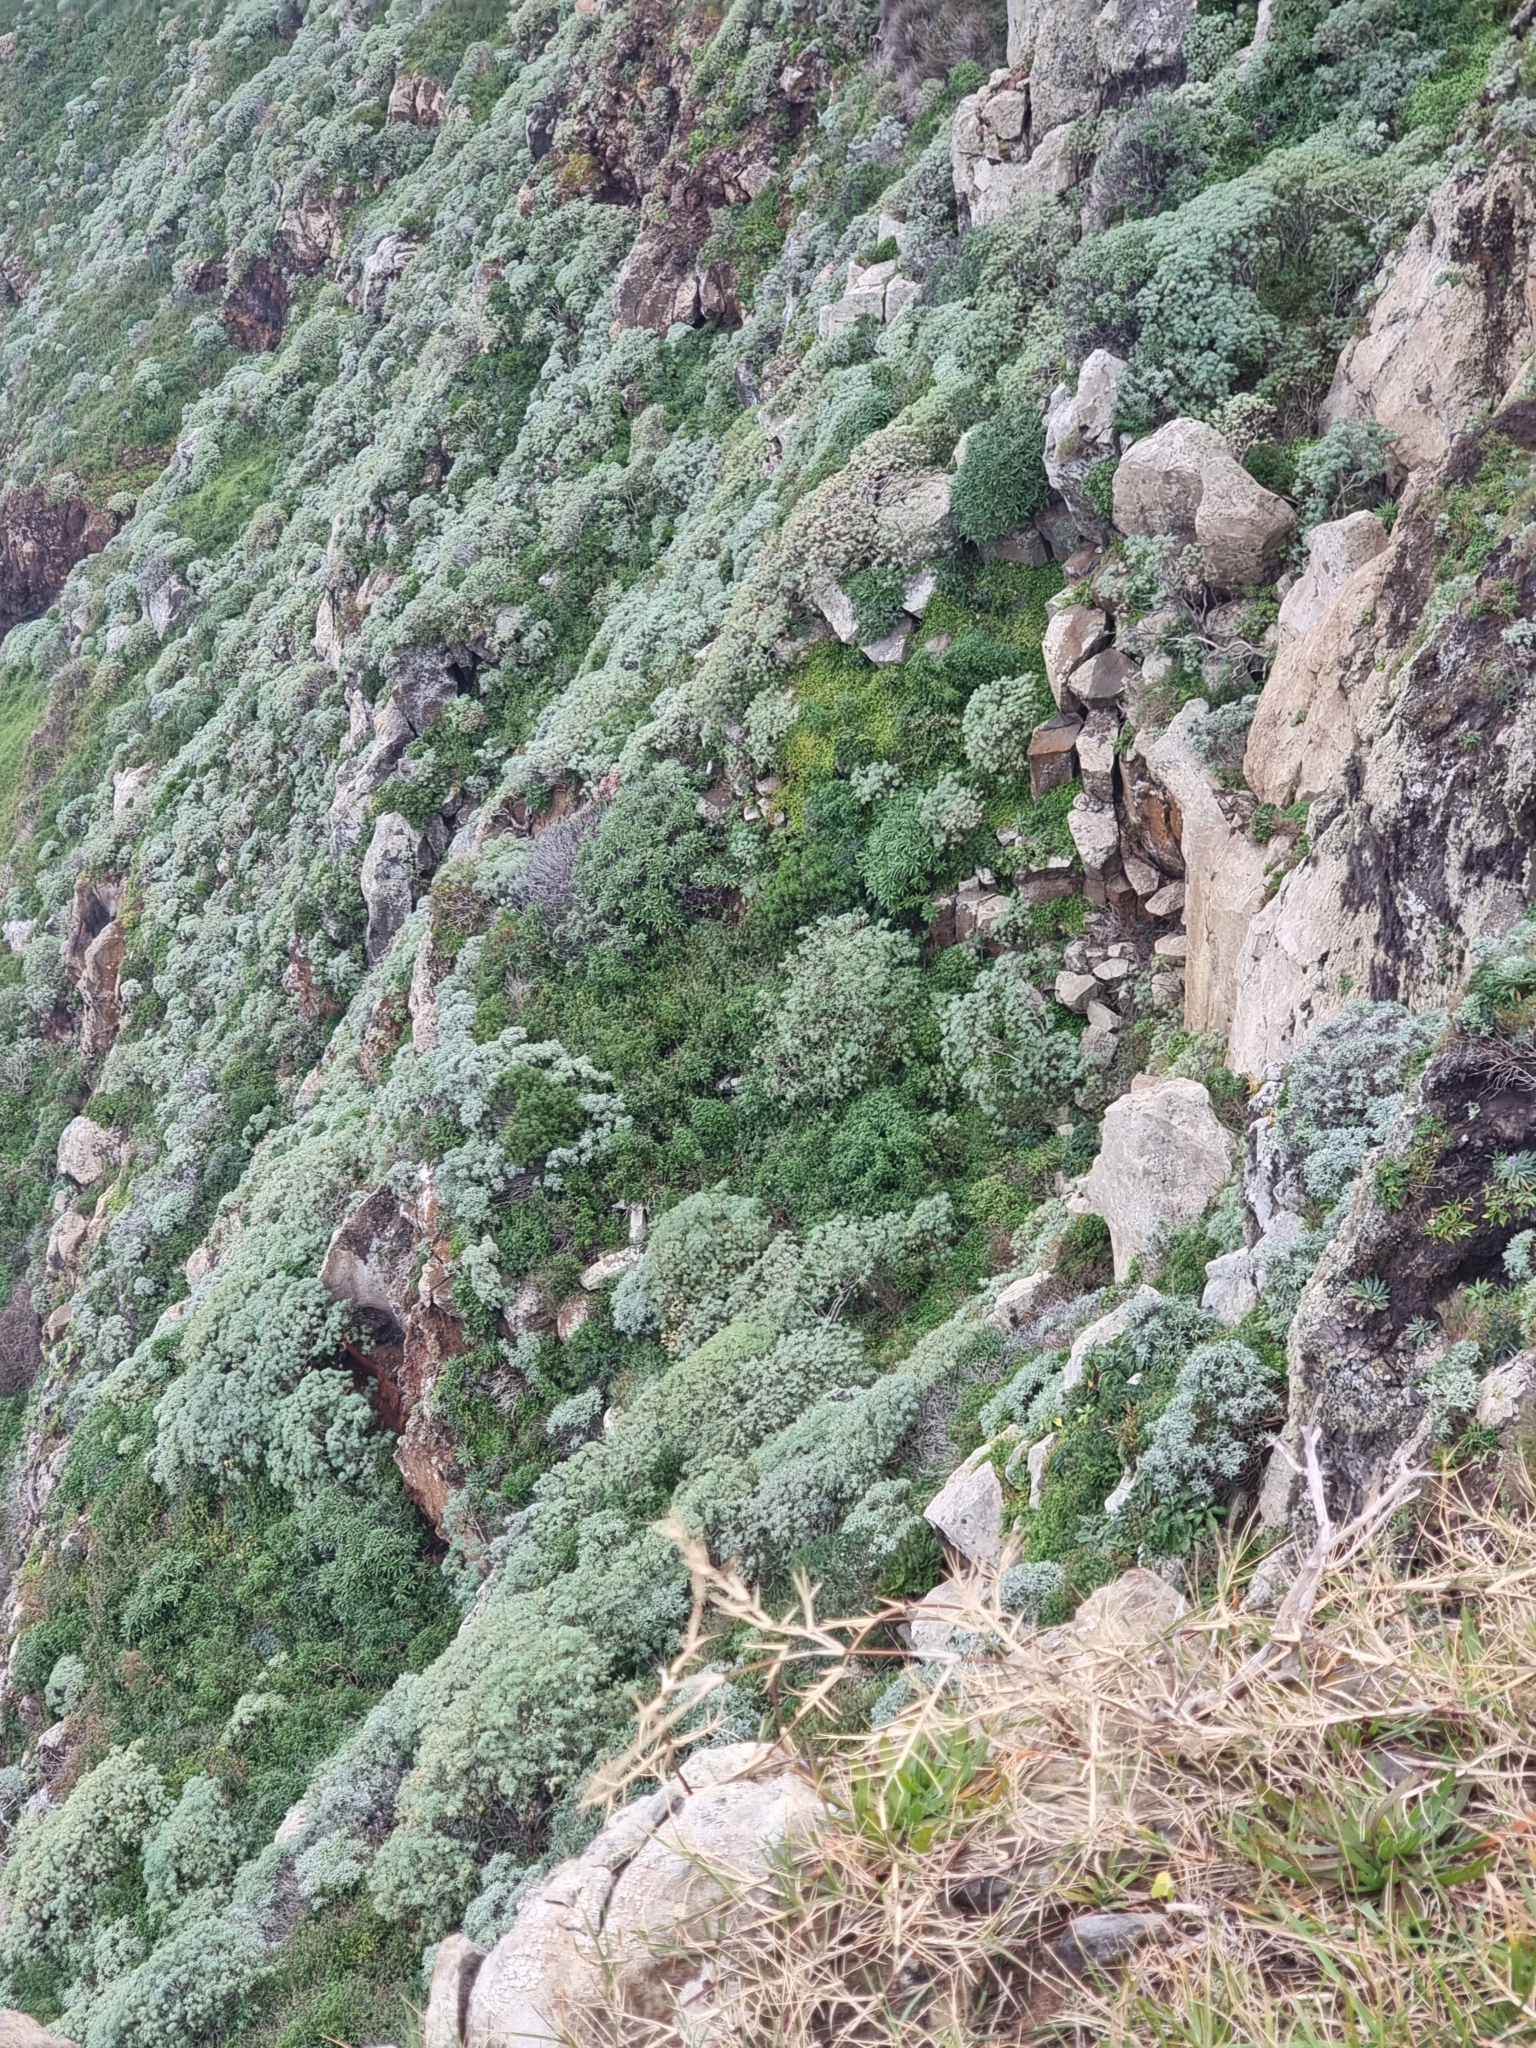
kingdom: Plantae
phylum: Tracheophyta
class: Magnoliopsida
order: Asterales
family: Asteraceae
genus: Helichrysum
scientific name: Helichrysum melaleucum
